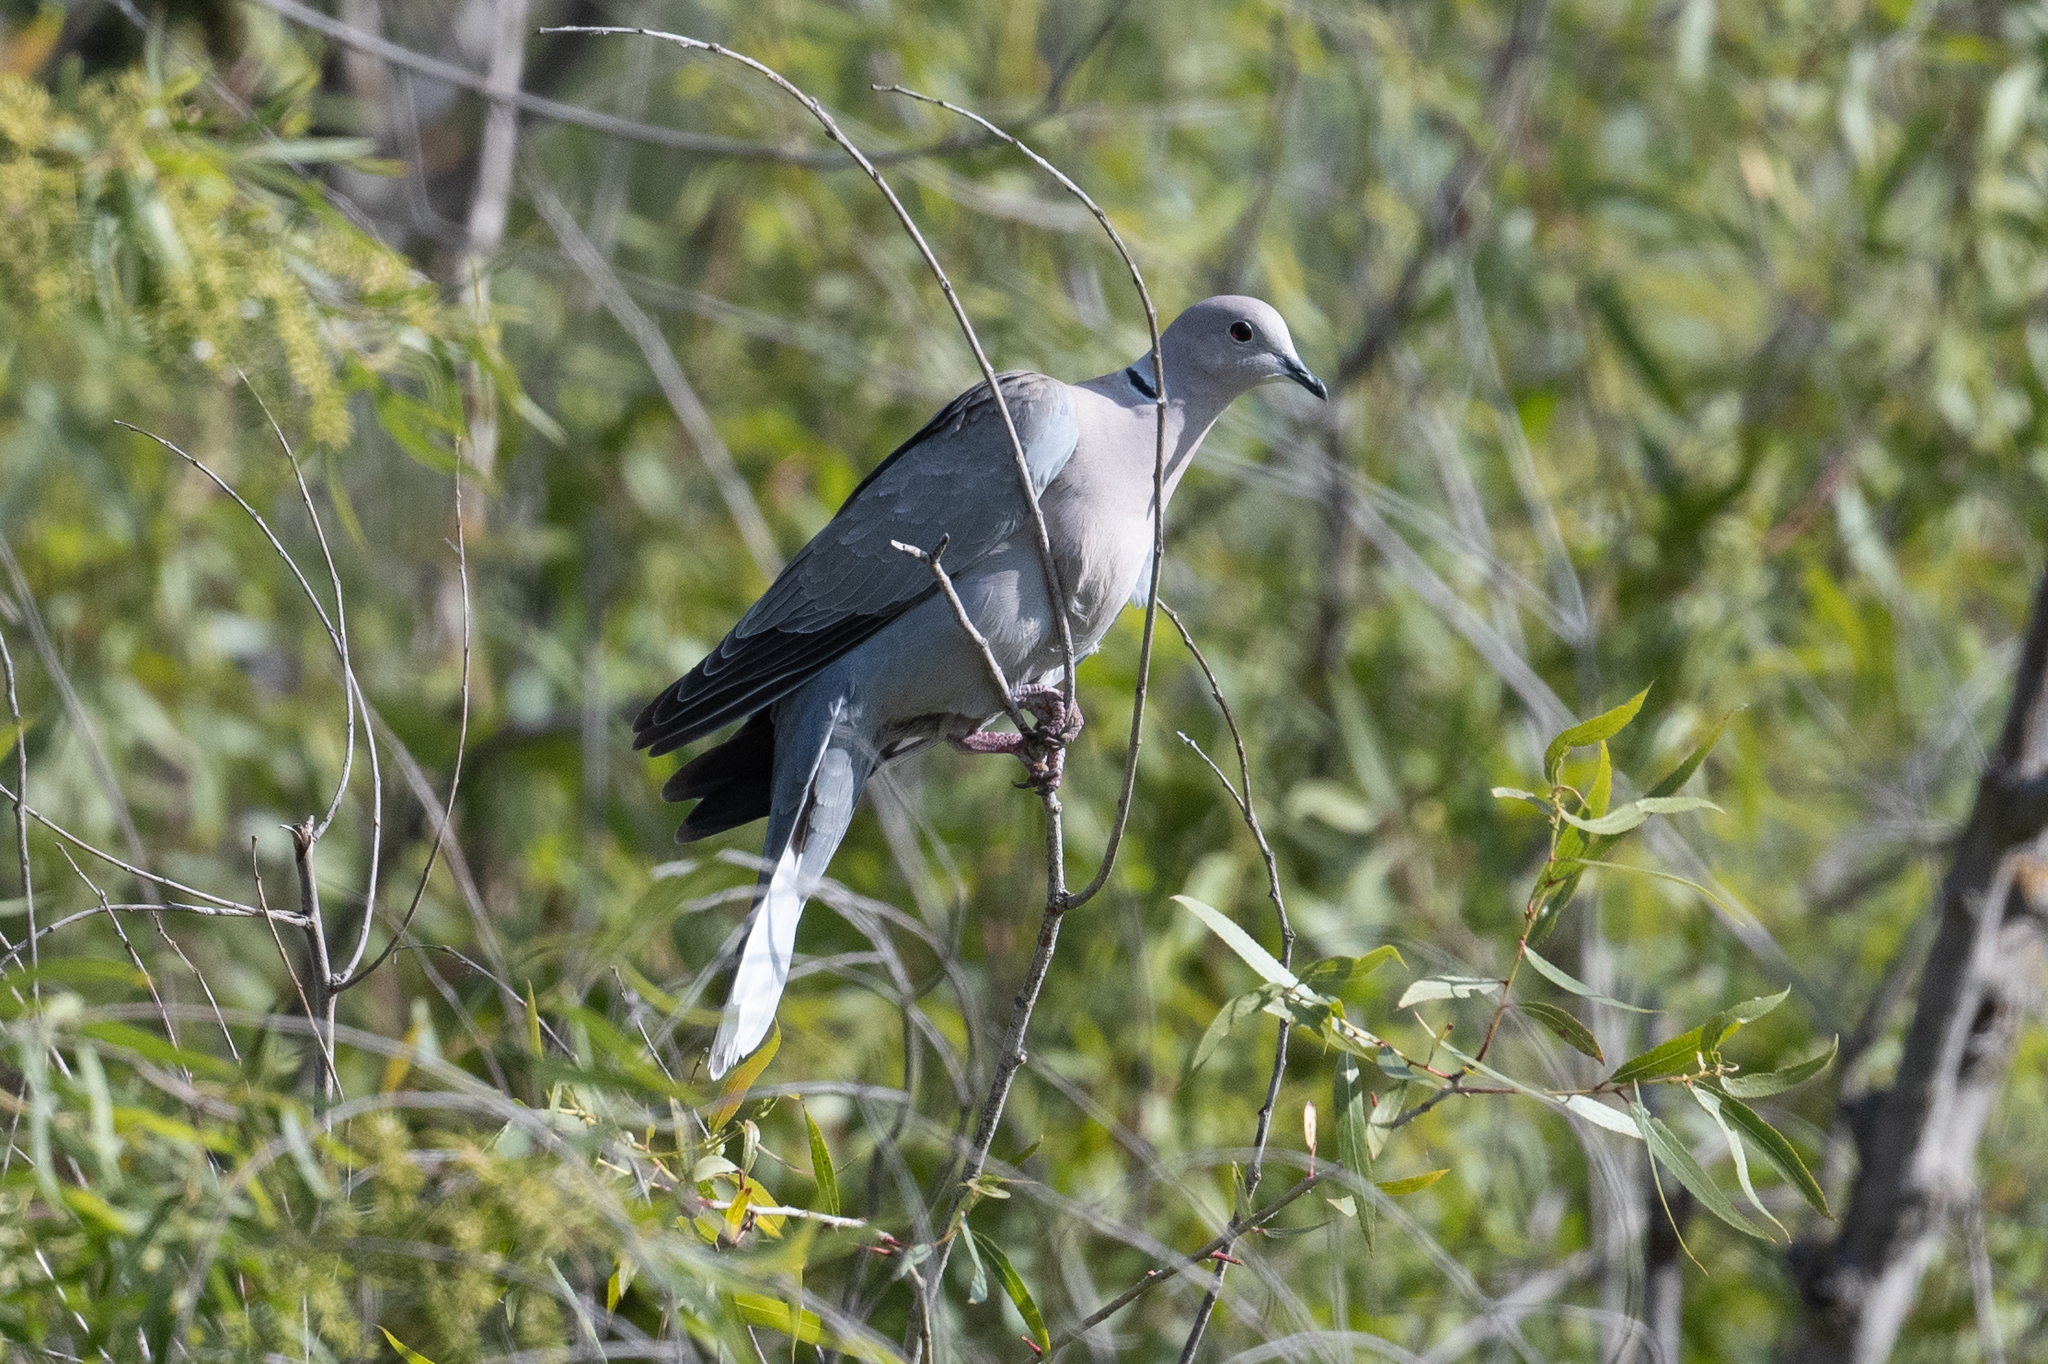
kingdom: Animalia
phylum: Chordata
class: Aves
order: Columbiformes
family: Columbidae
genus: Streptopelia
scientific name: Streptopelia decaocto
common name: Eurasian collared dove
